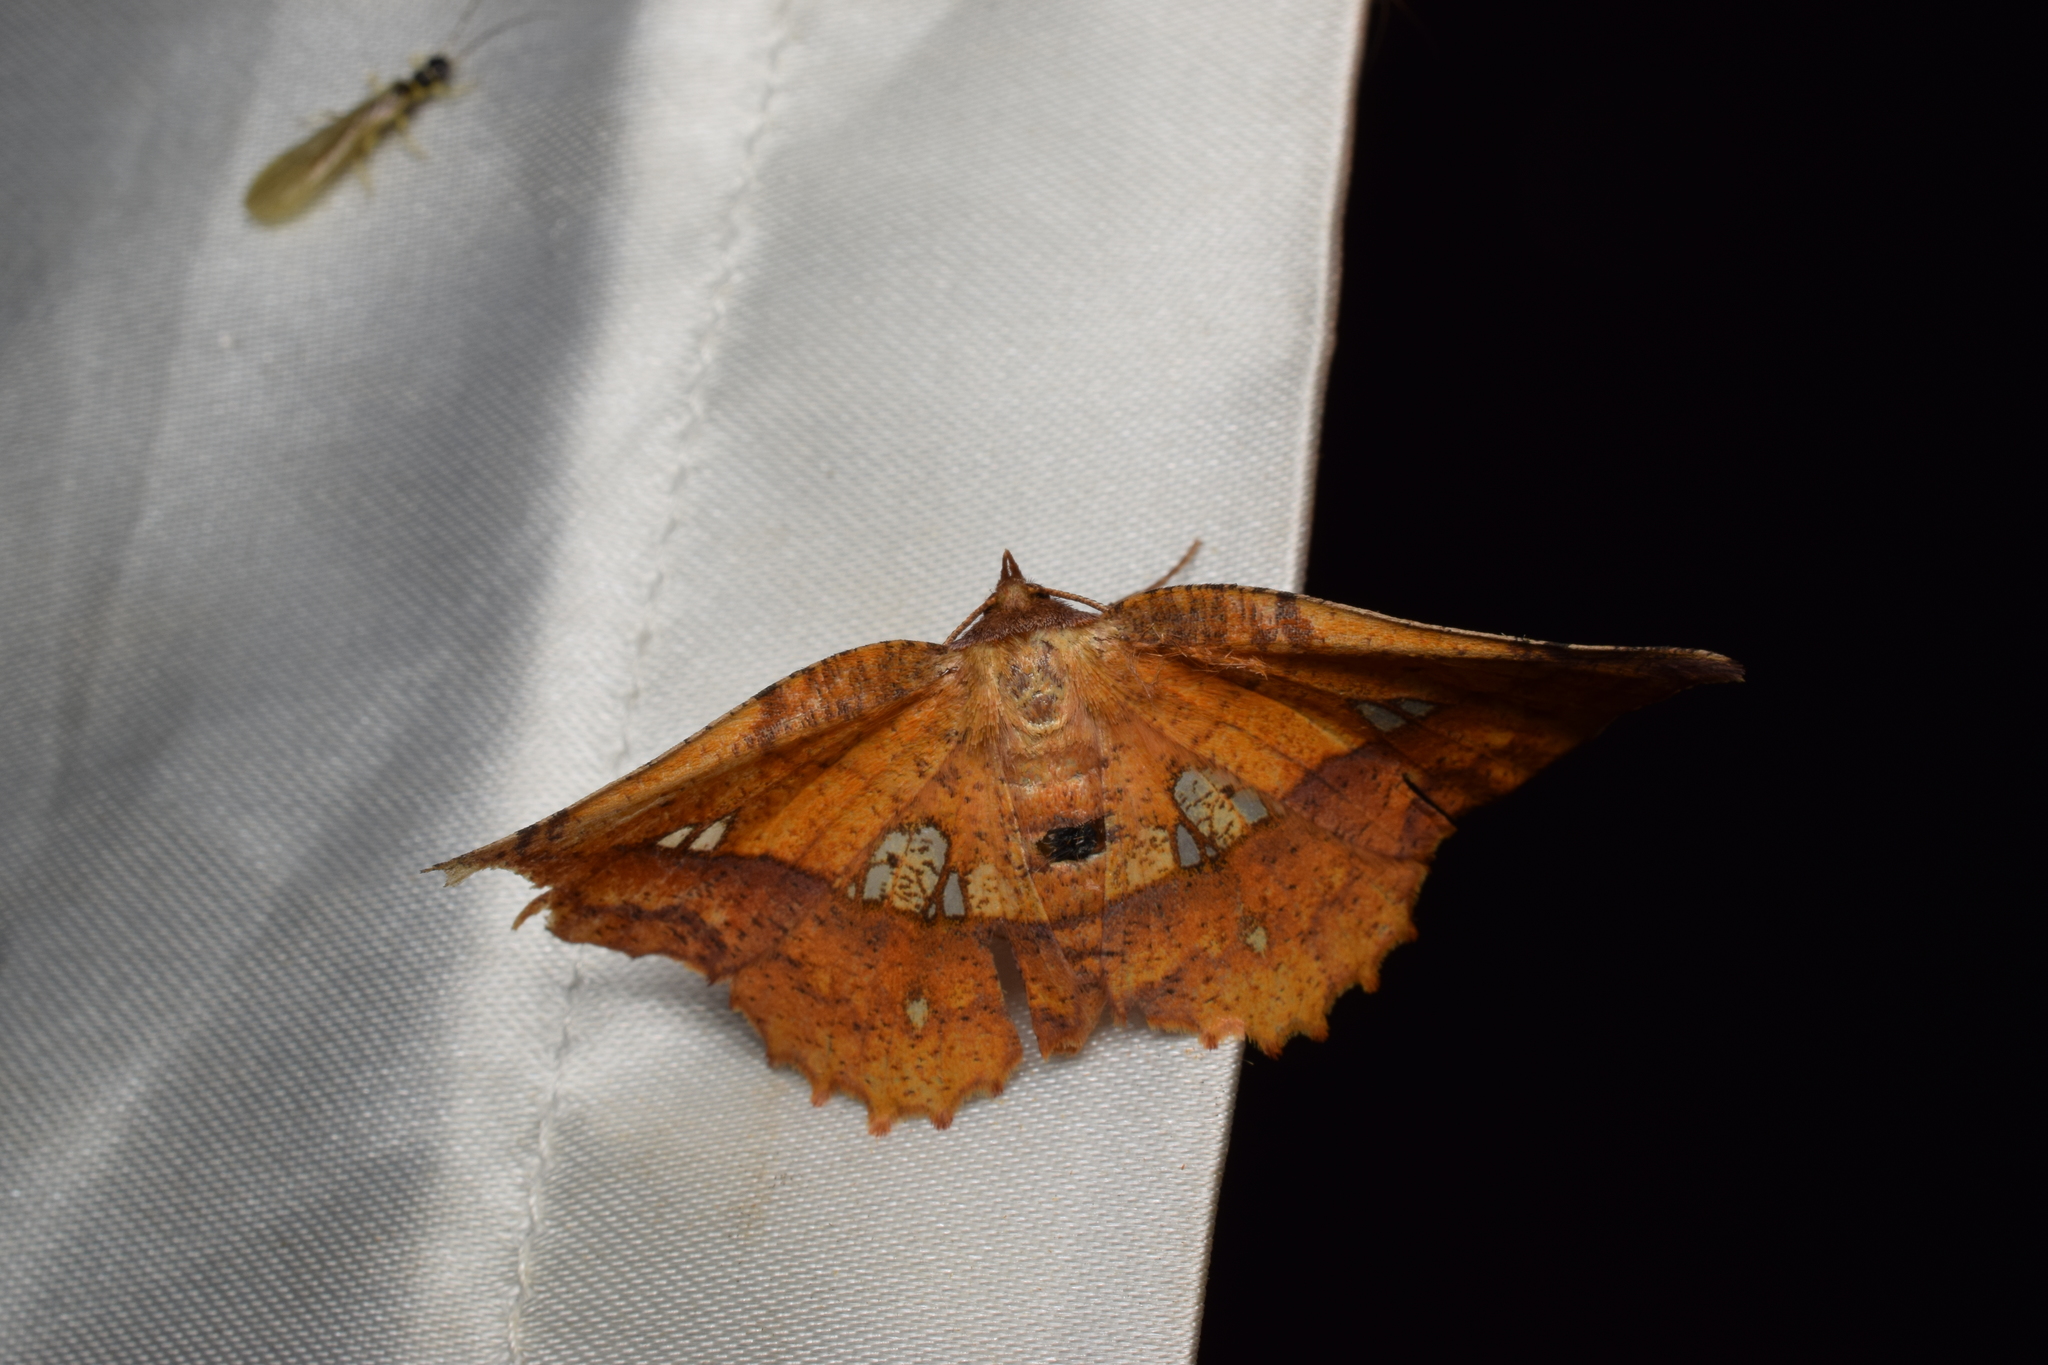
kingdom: Animalia
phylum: Arthropoda
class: Insecta
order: Lepidoptera
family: Geometridae
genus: Garaeus
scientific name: Garaeus specularis
